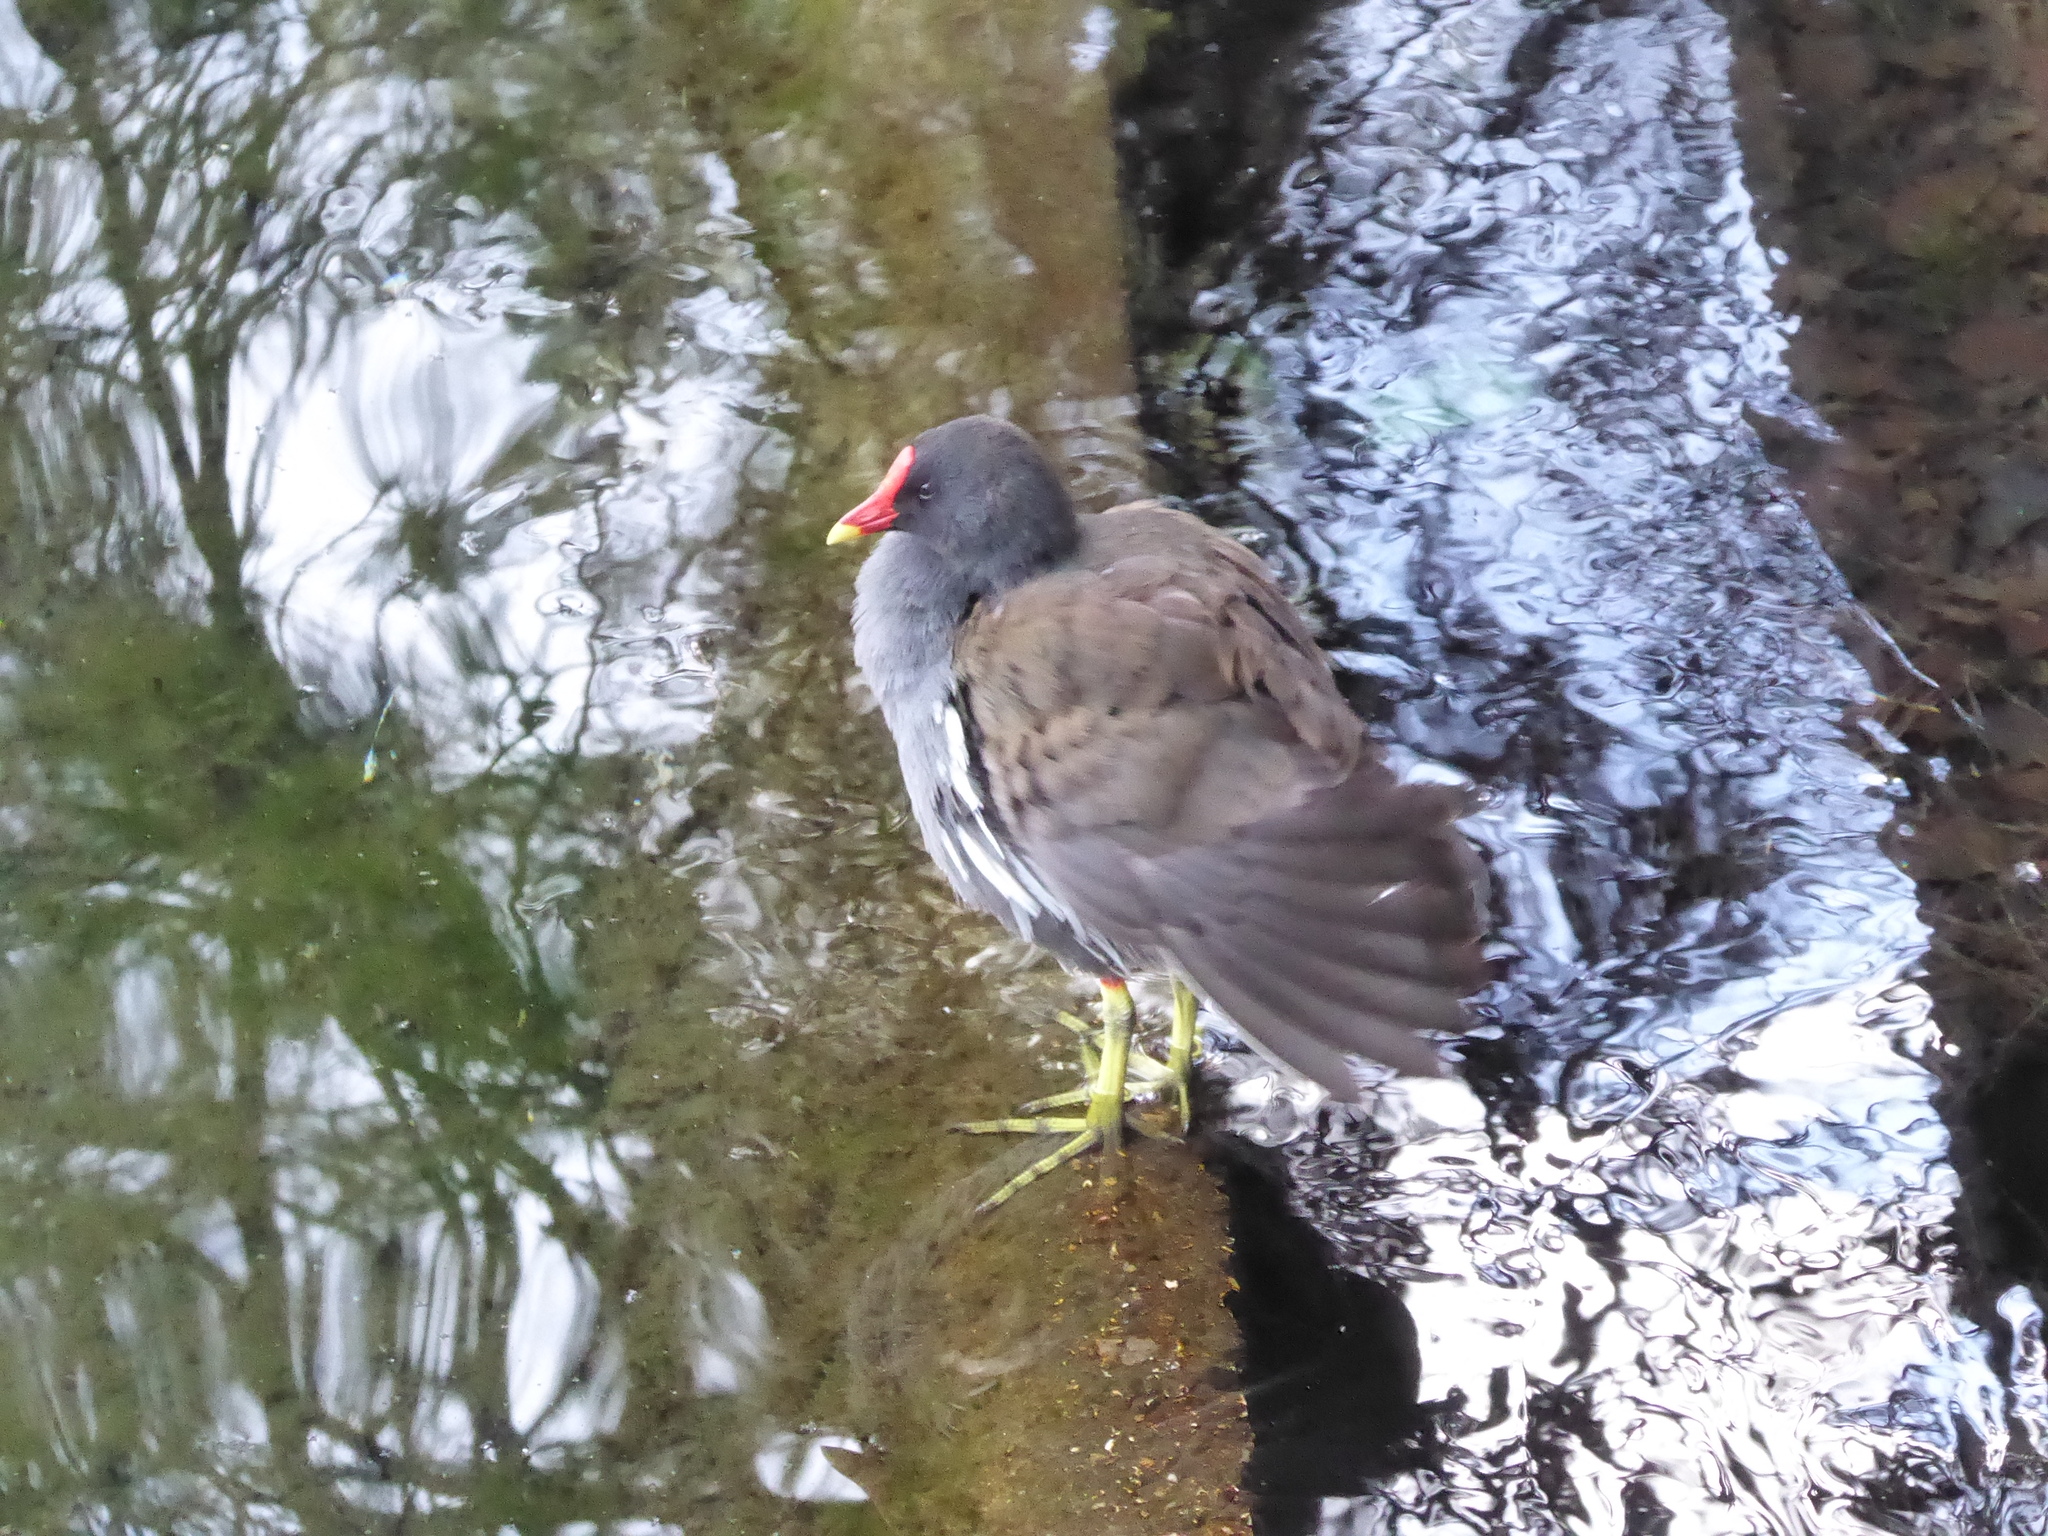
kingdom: Animalia
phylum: Chordata
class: Aves
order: Gruiformes
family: Rallidae
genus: Gallinula
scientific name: Gallinula chloropus
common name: Common moorhen
